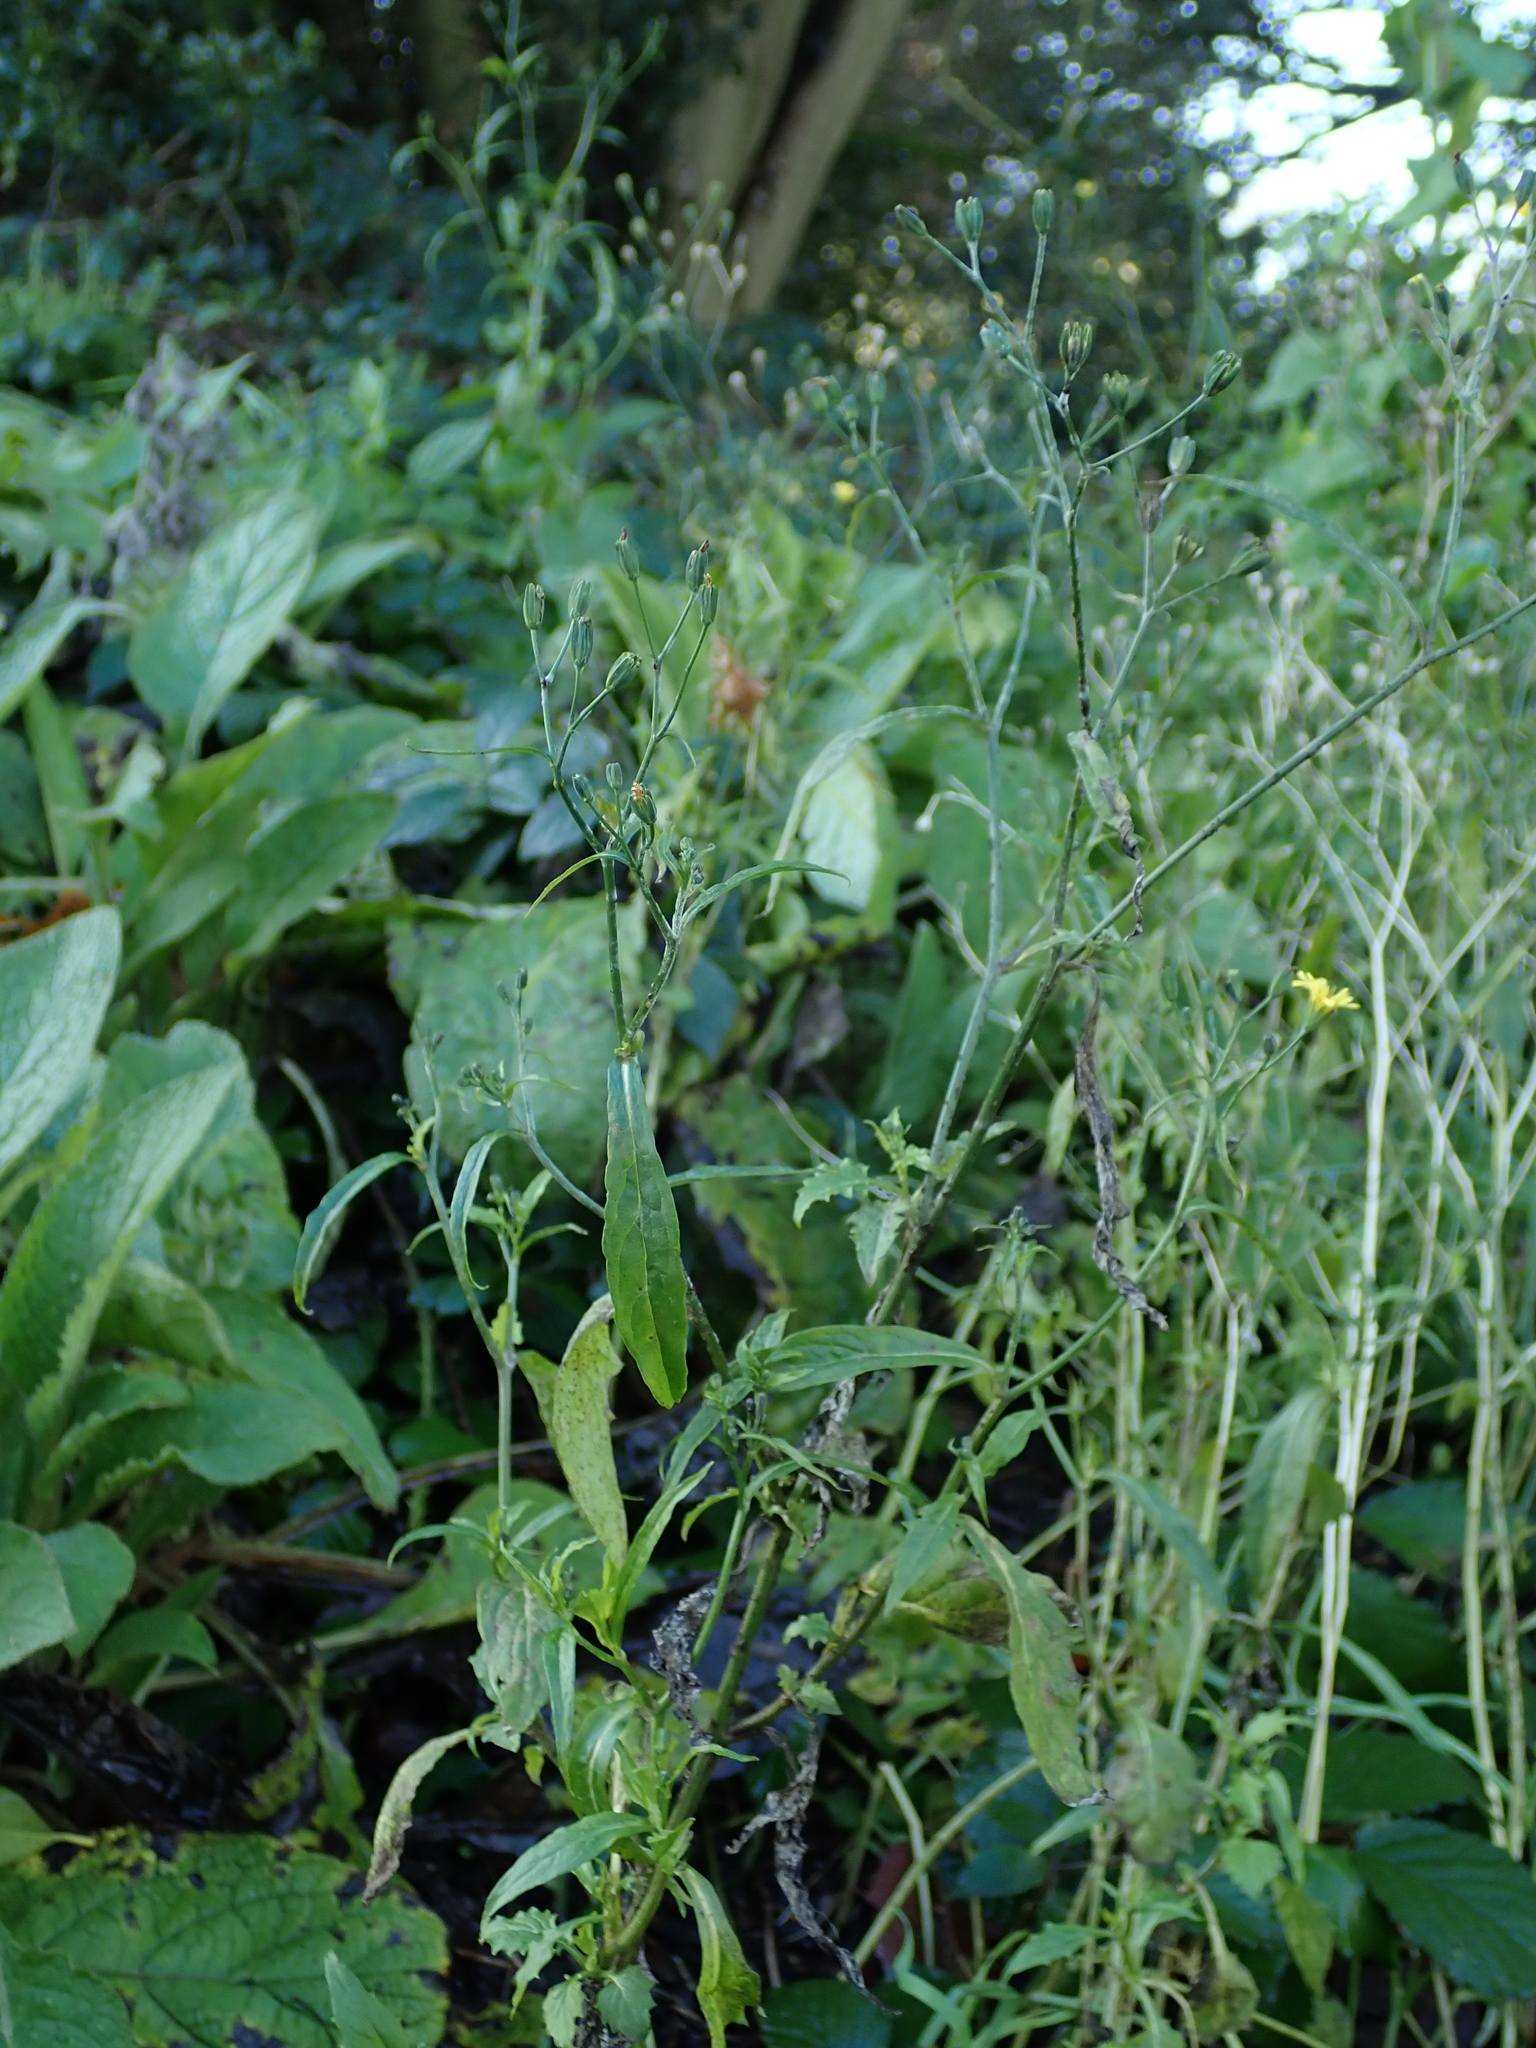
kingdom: Plantae
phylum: Tracheophyta
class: Magnoliopsida
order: Asterales
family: Asteraceae
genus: Lapsana
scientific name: Lapsana communis
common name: Nipplewort
